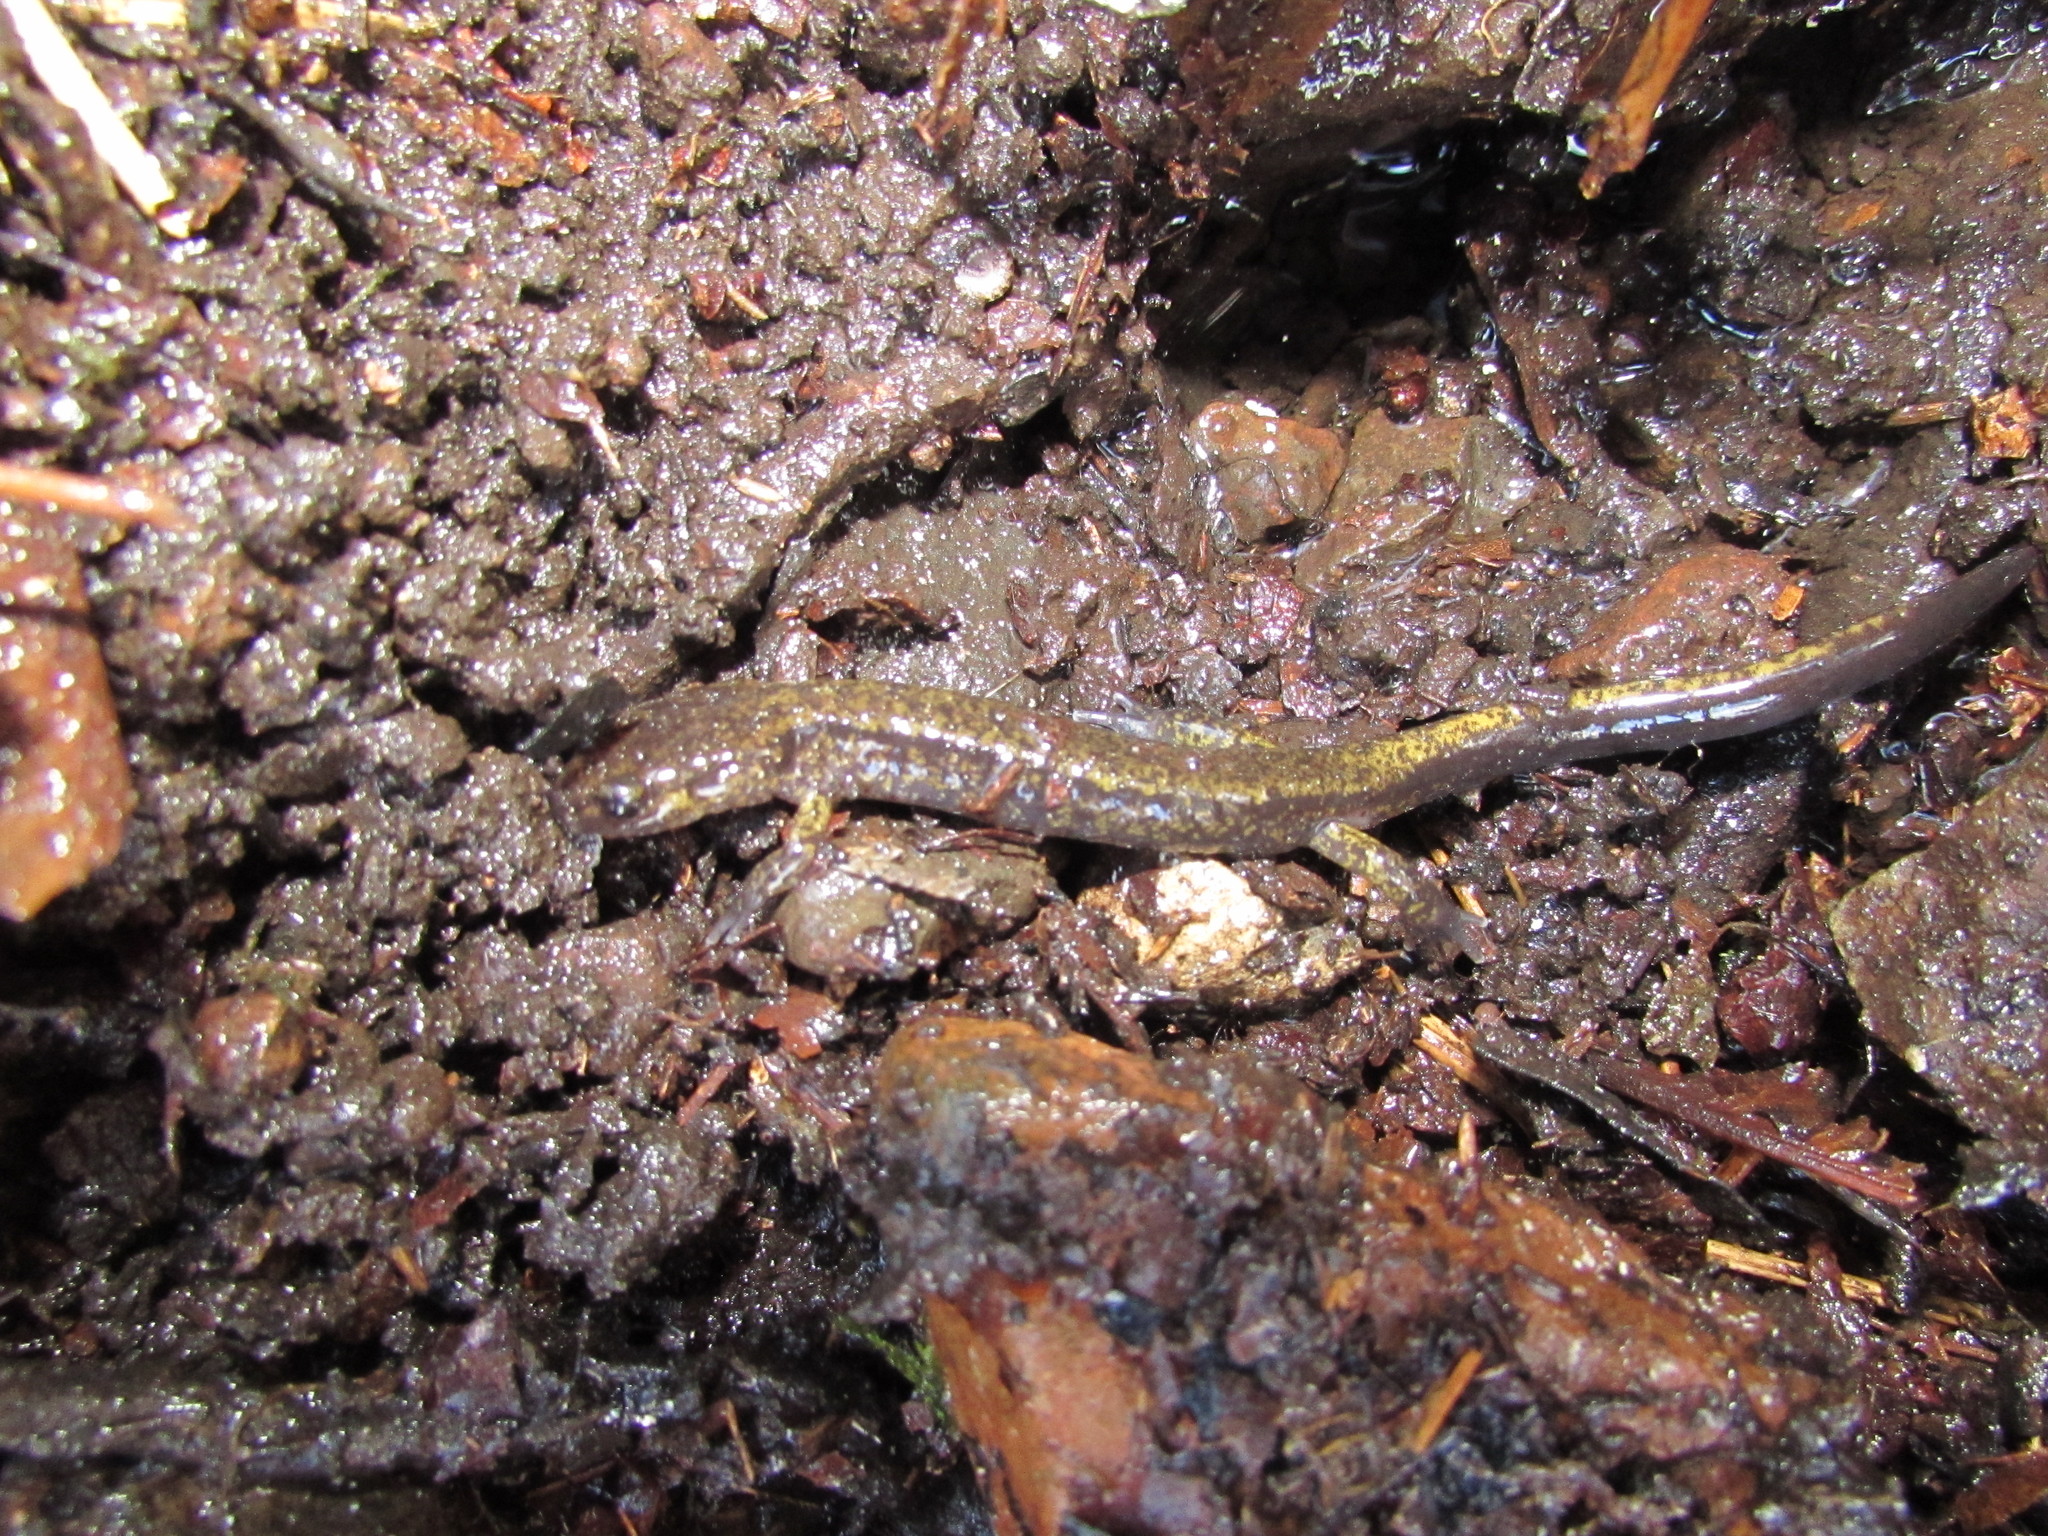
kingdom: Animalia
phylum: Chordata
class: Amphibia
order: Caudata
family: Plethodontidae
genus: Plethodon
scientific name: Plethodon dunni
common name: Dunn's salamander
